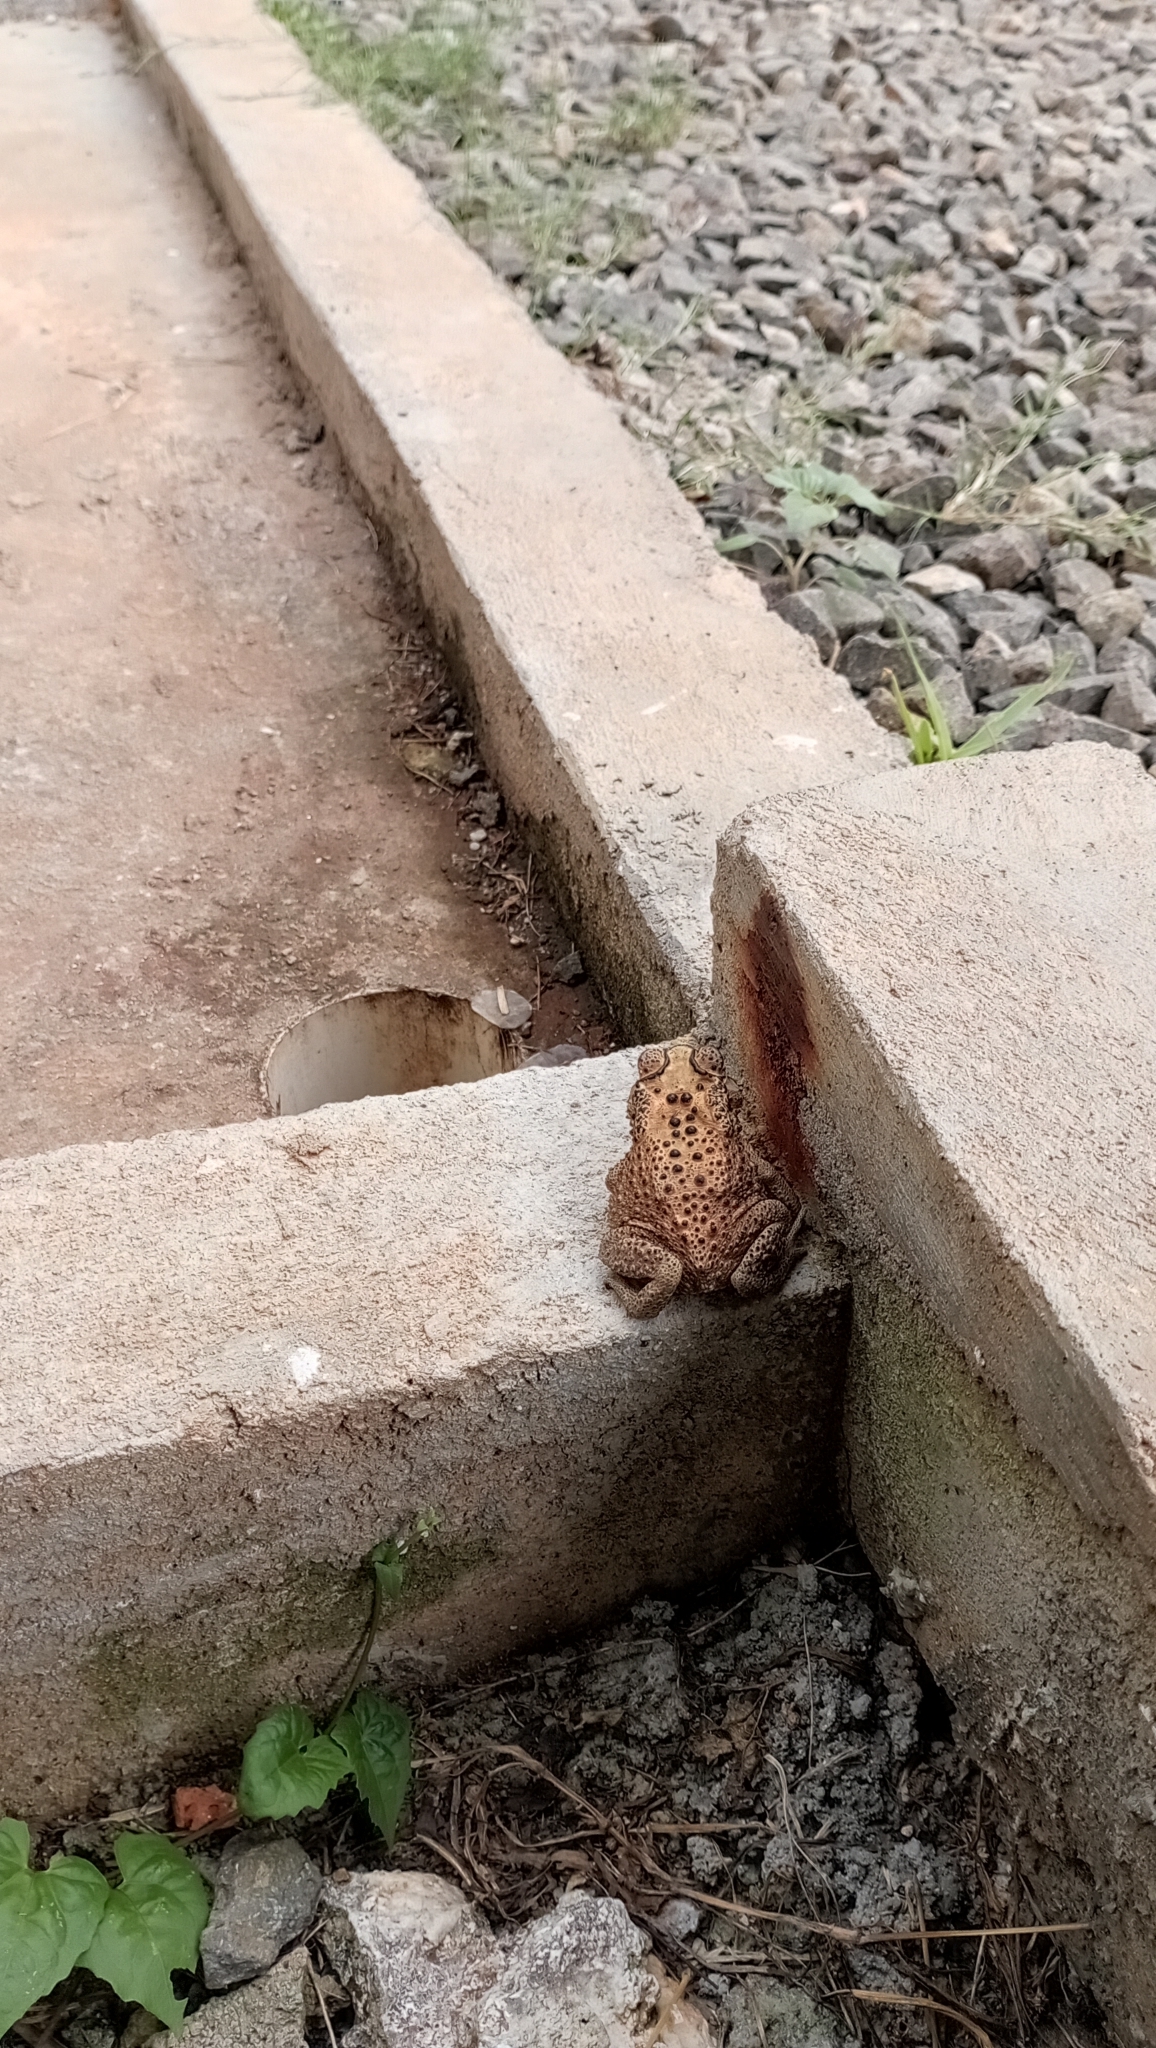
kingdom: Animalia
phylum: Chordata
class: Amphibia
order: Anura
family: Bufonidae
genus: Duttaphrynus
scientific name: Duttaphrynus melanostictus
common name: Common sunda toad
